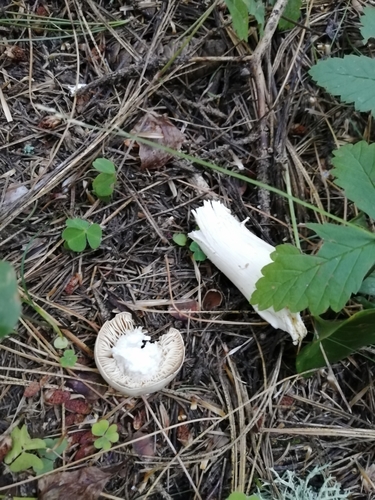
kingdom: Fungi
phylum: Basidiomycota
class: Agaricomycetes
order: Agaricales
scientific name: Agaricales
